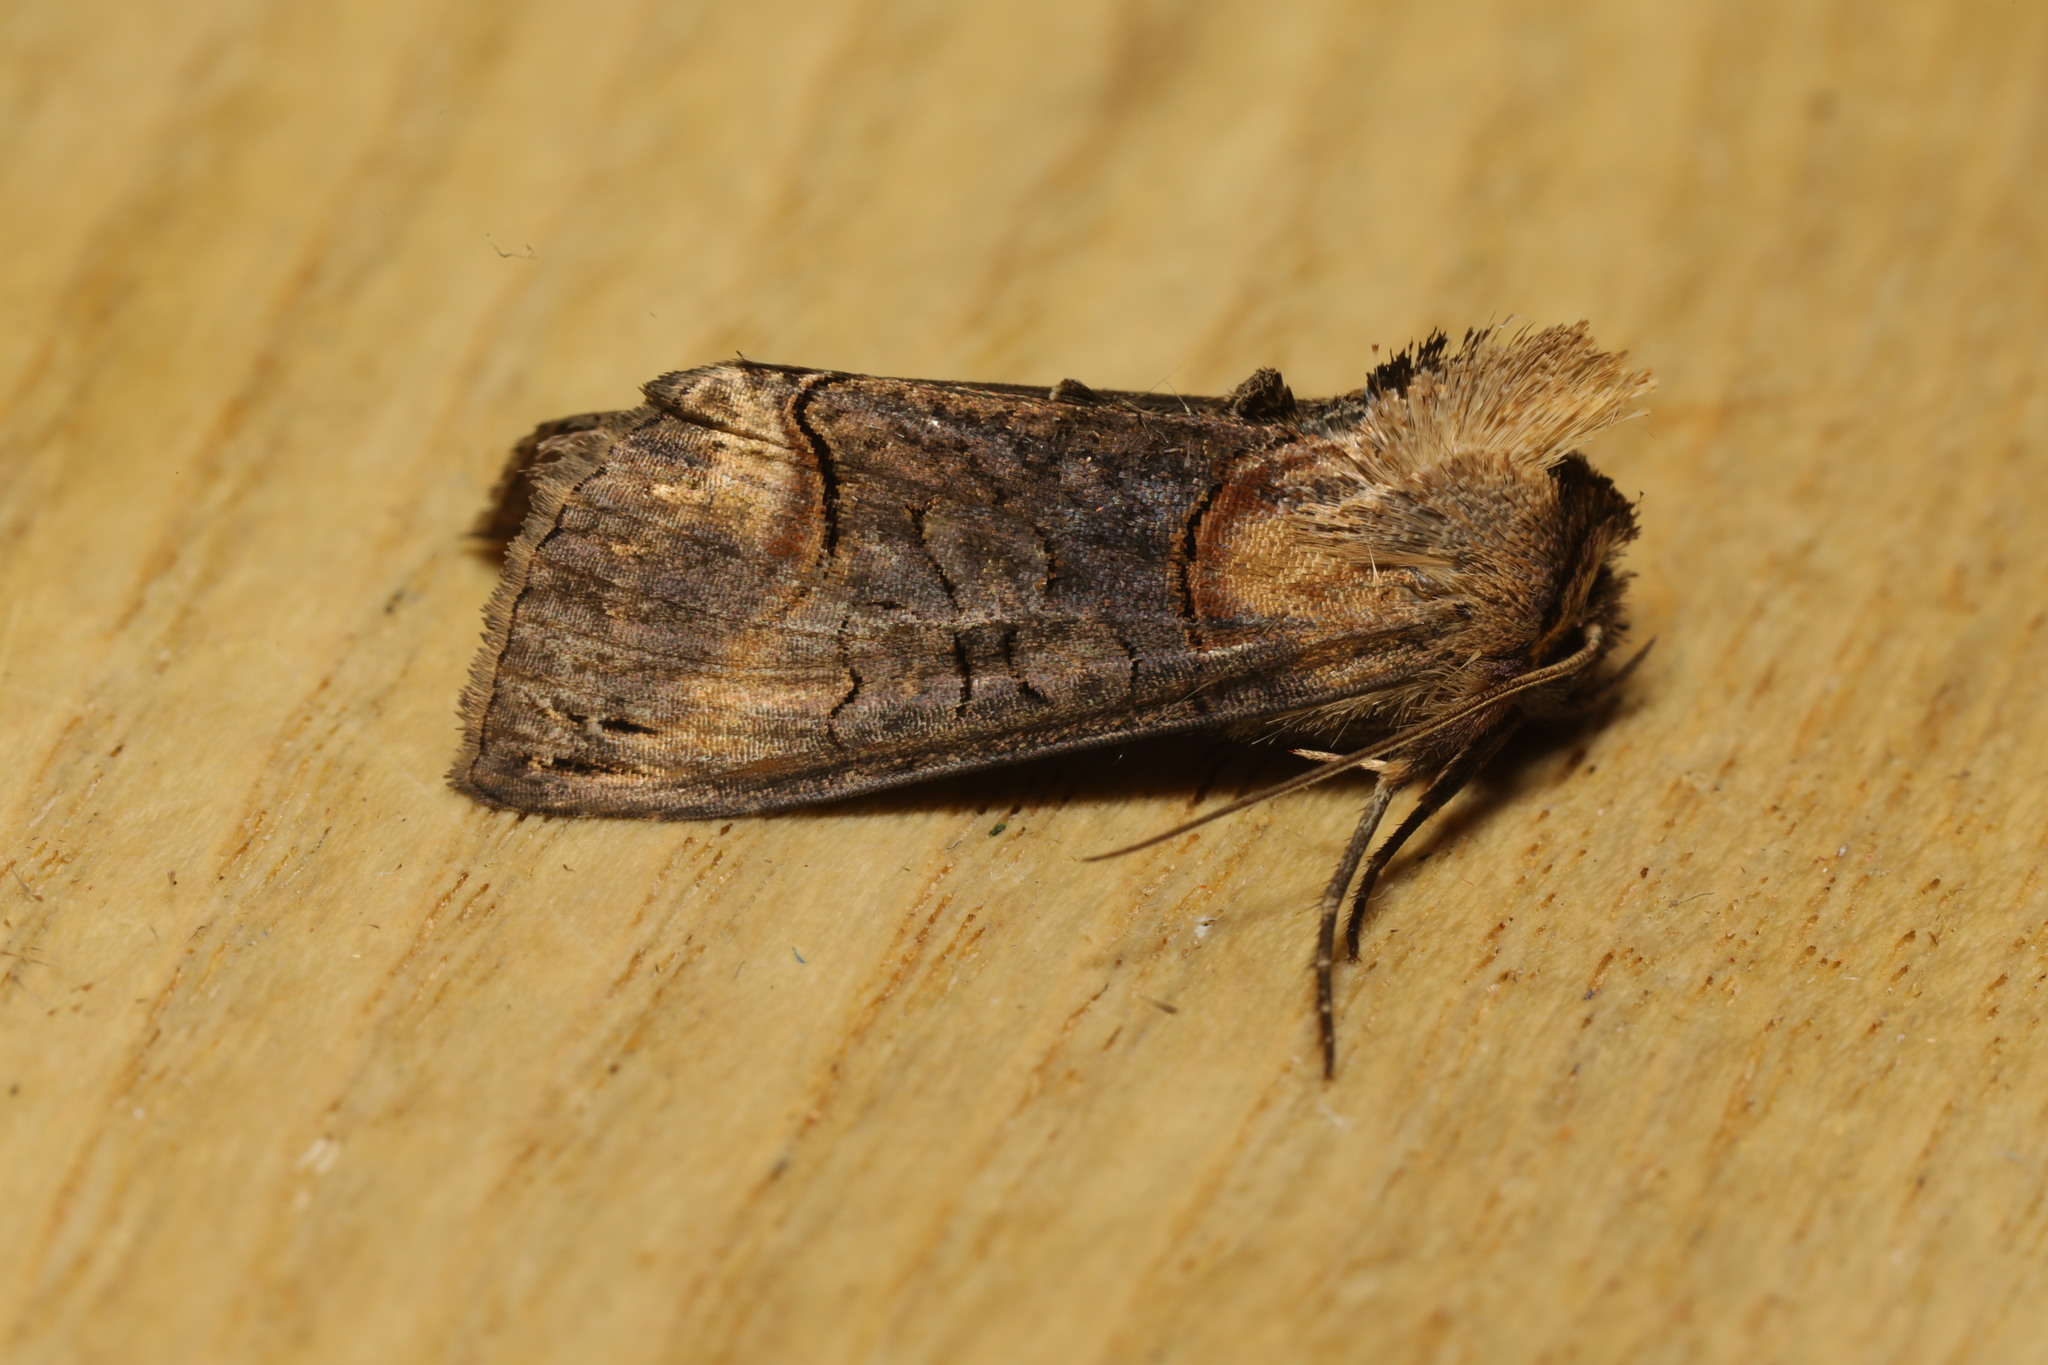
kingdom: Animalia
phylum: Arthropoda
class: Insecta
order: Lepidoptera
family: Noctuidae
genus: Abrostola
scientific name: Abrostola triplasia
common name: Dark spectacle
